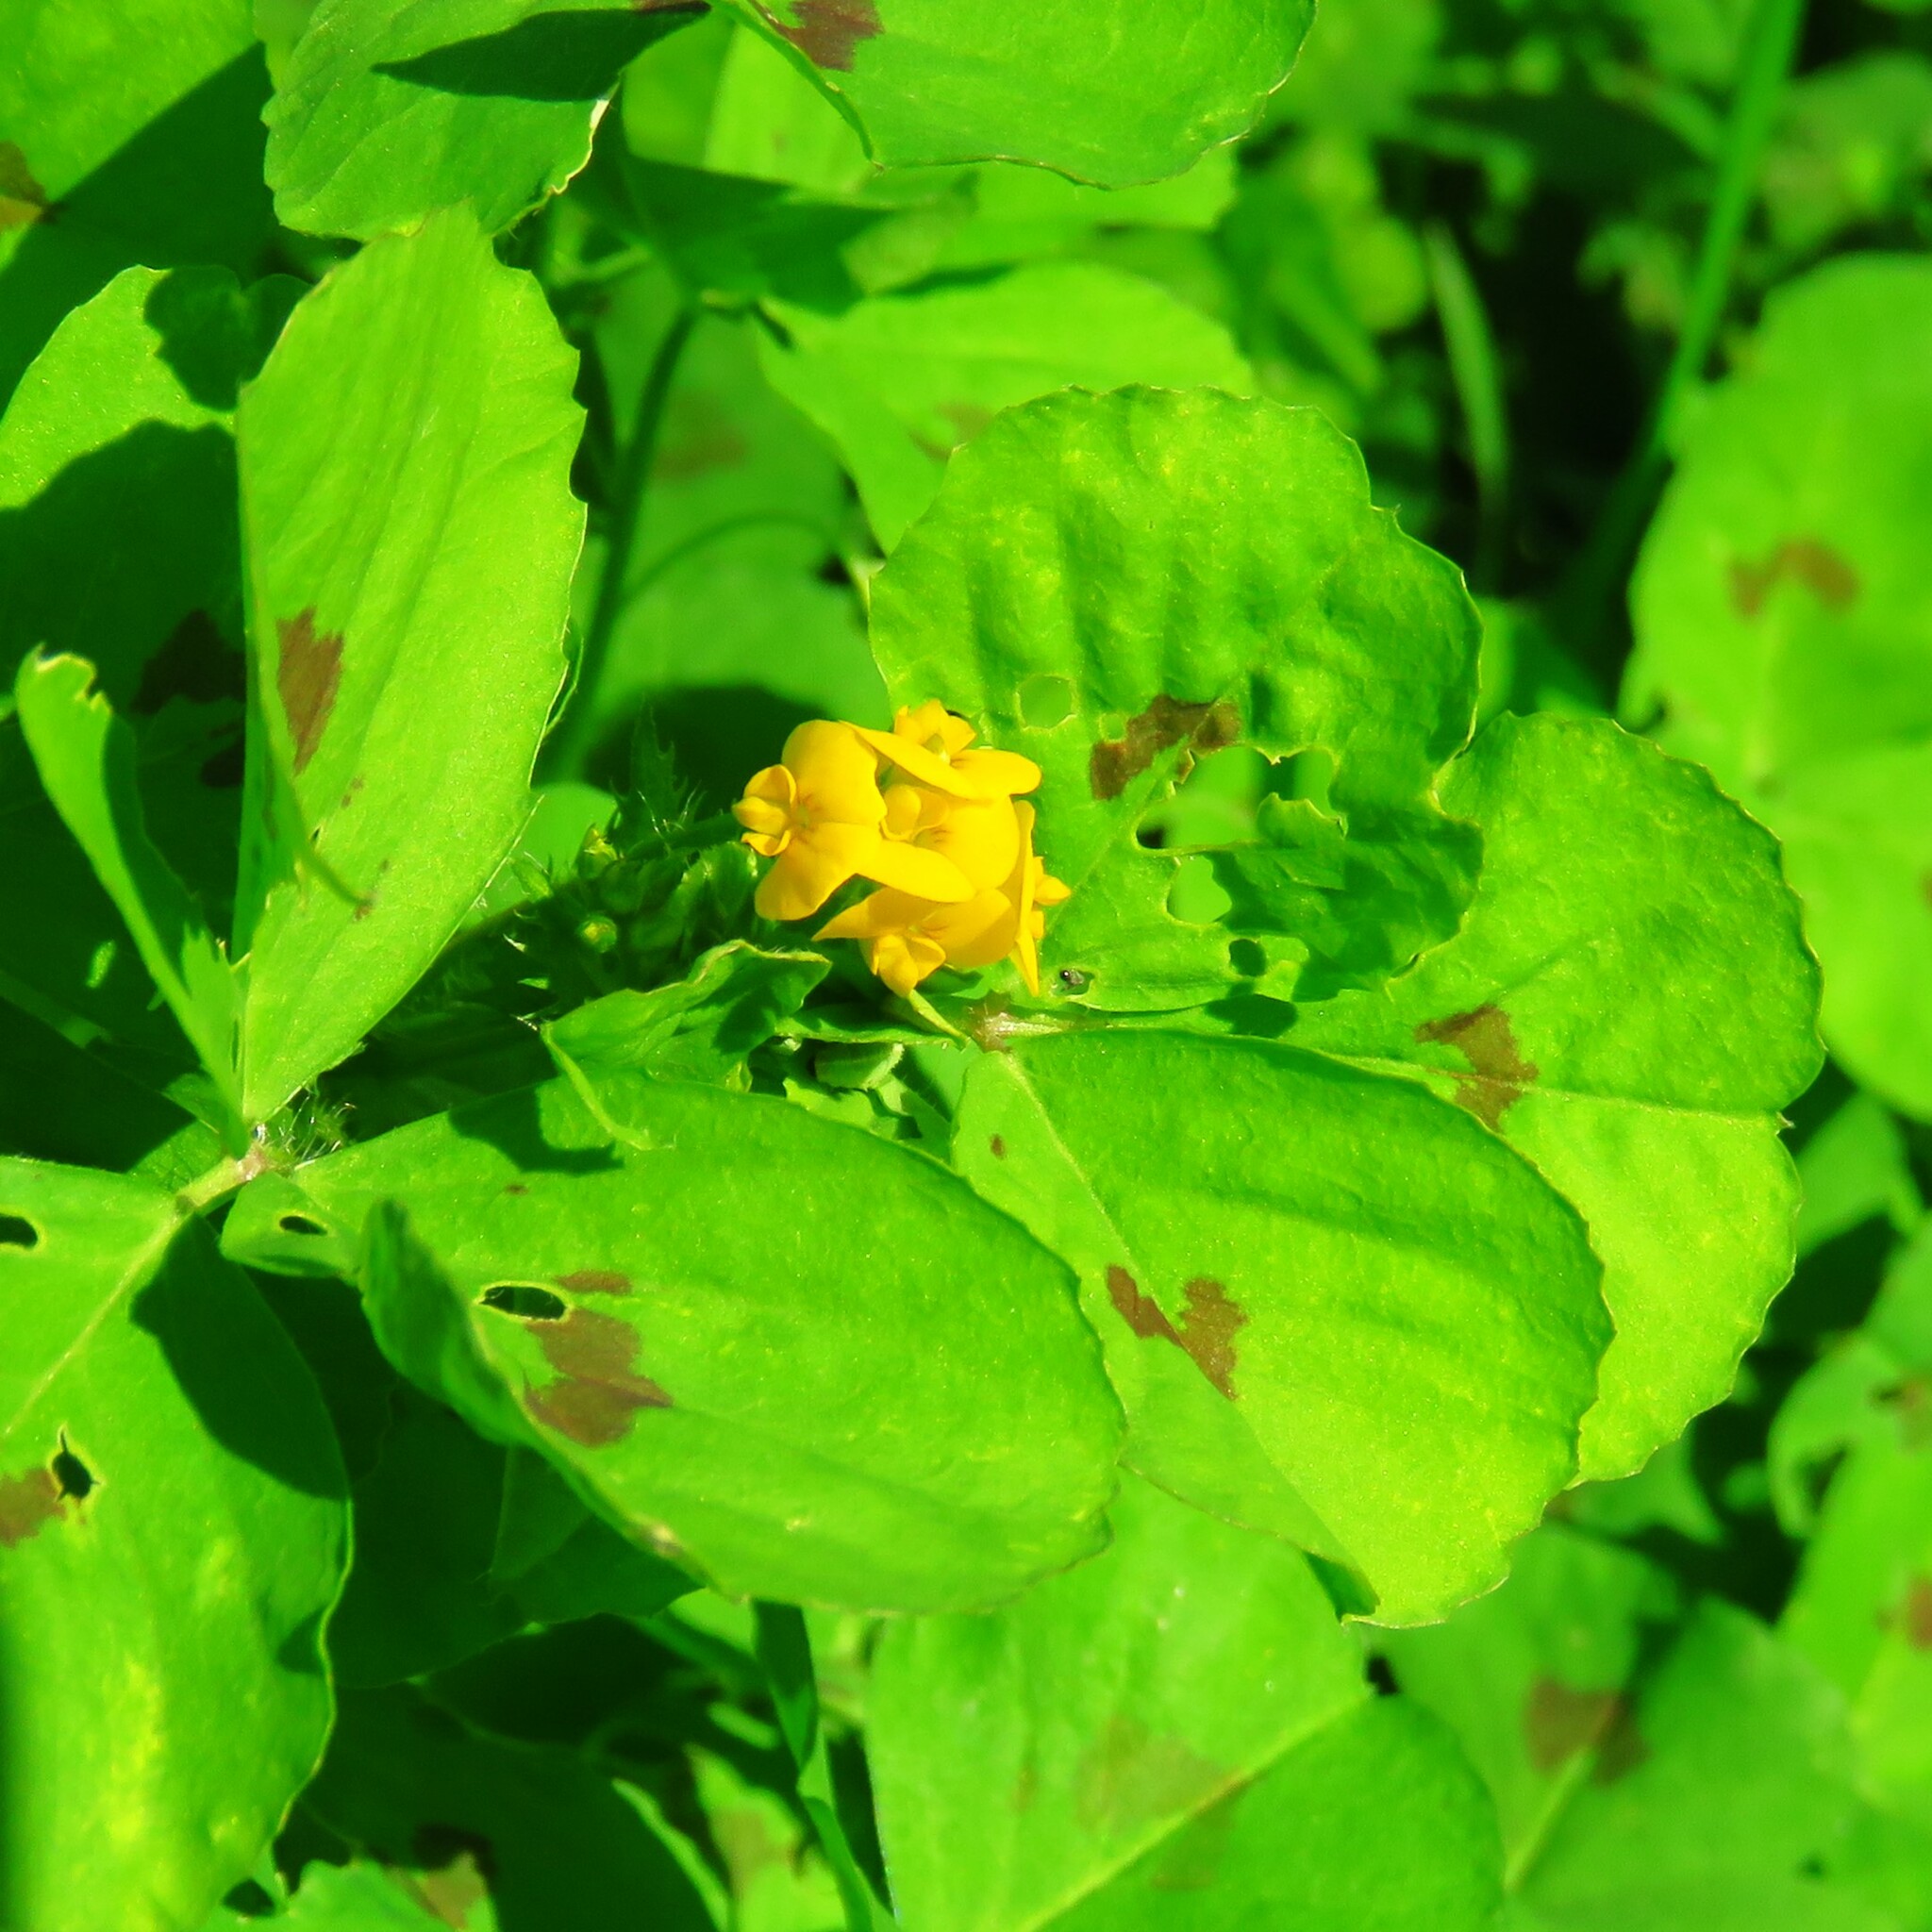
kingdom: Plantae
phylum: Tracheophyta
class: Magnoliopsida
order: Fabales
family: Fabaceae
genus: Medicago
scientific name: Medicago arabica
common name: Spotted medick
